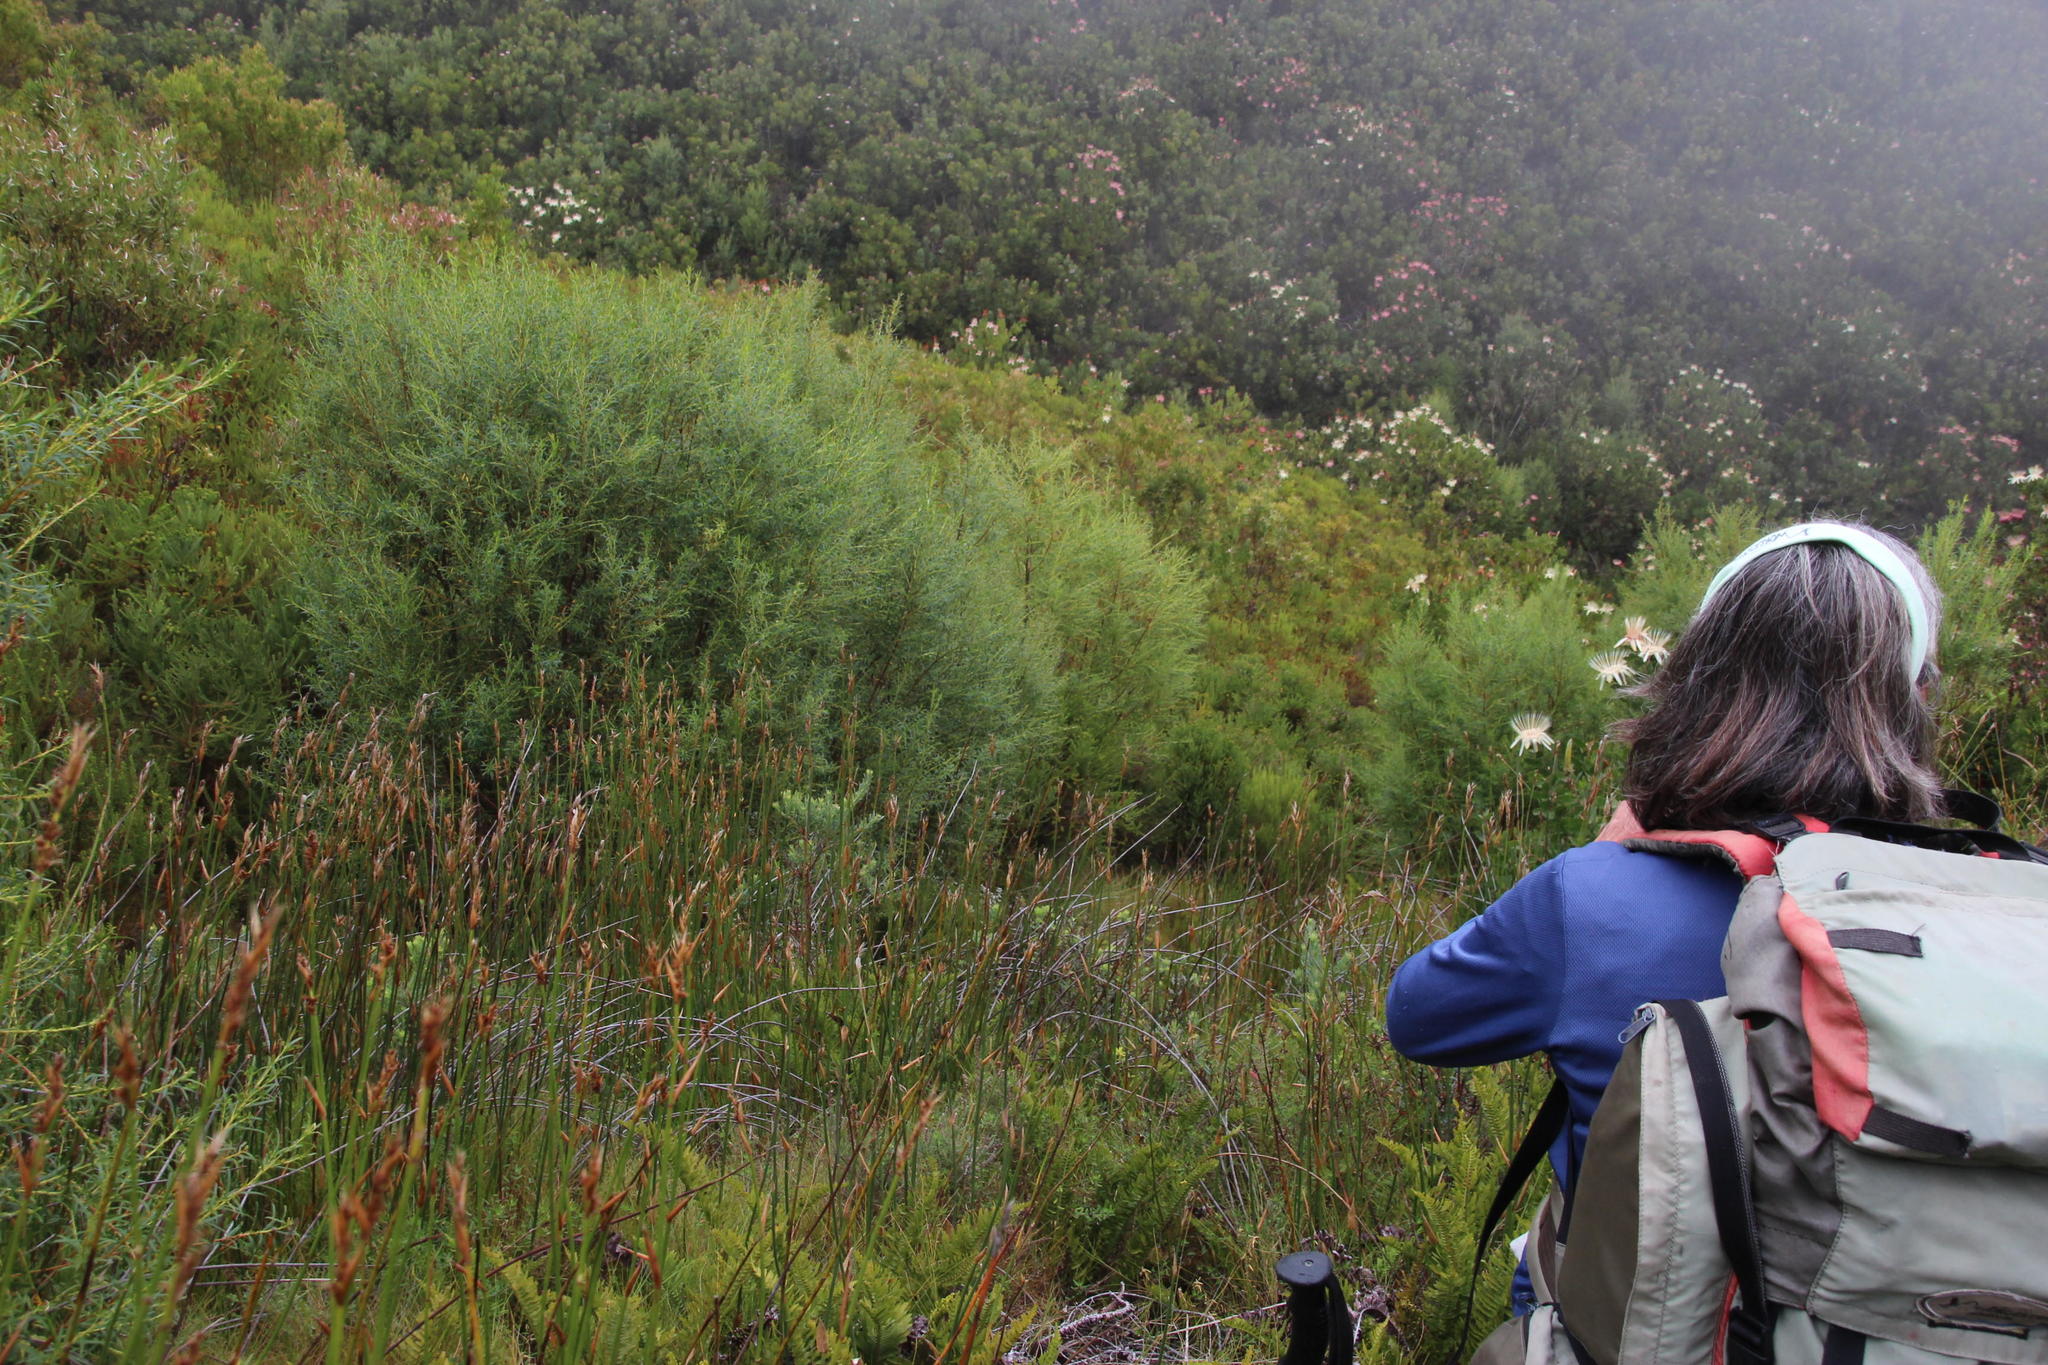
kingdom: Plantae
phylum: Tracheophyta
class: Magnoliopsida
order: Cornales
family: Grubbiaceae
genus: Grubbia
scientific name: Grubbia rosmarinifolia
